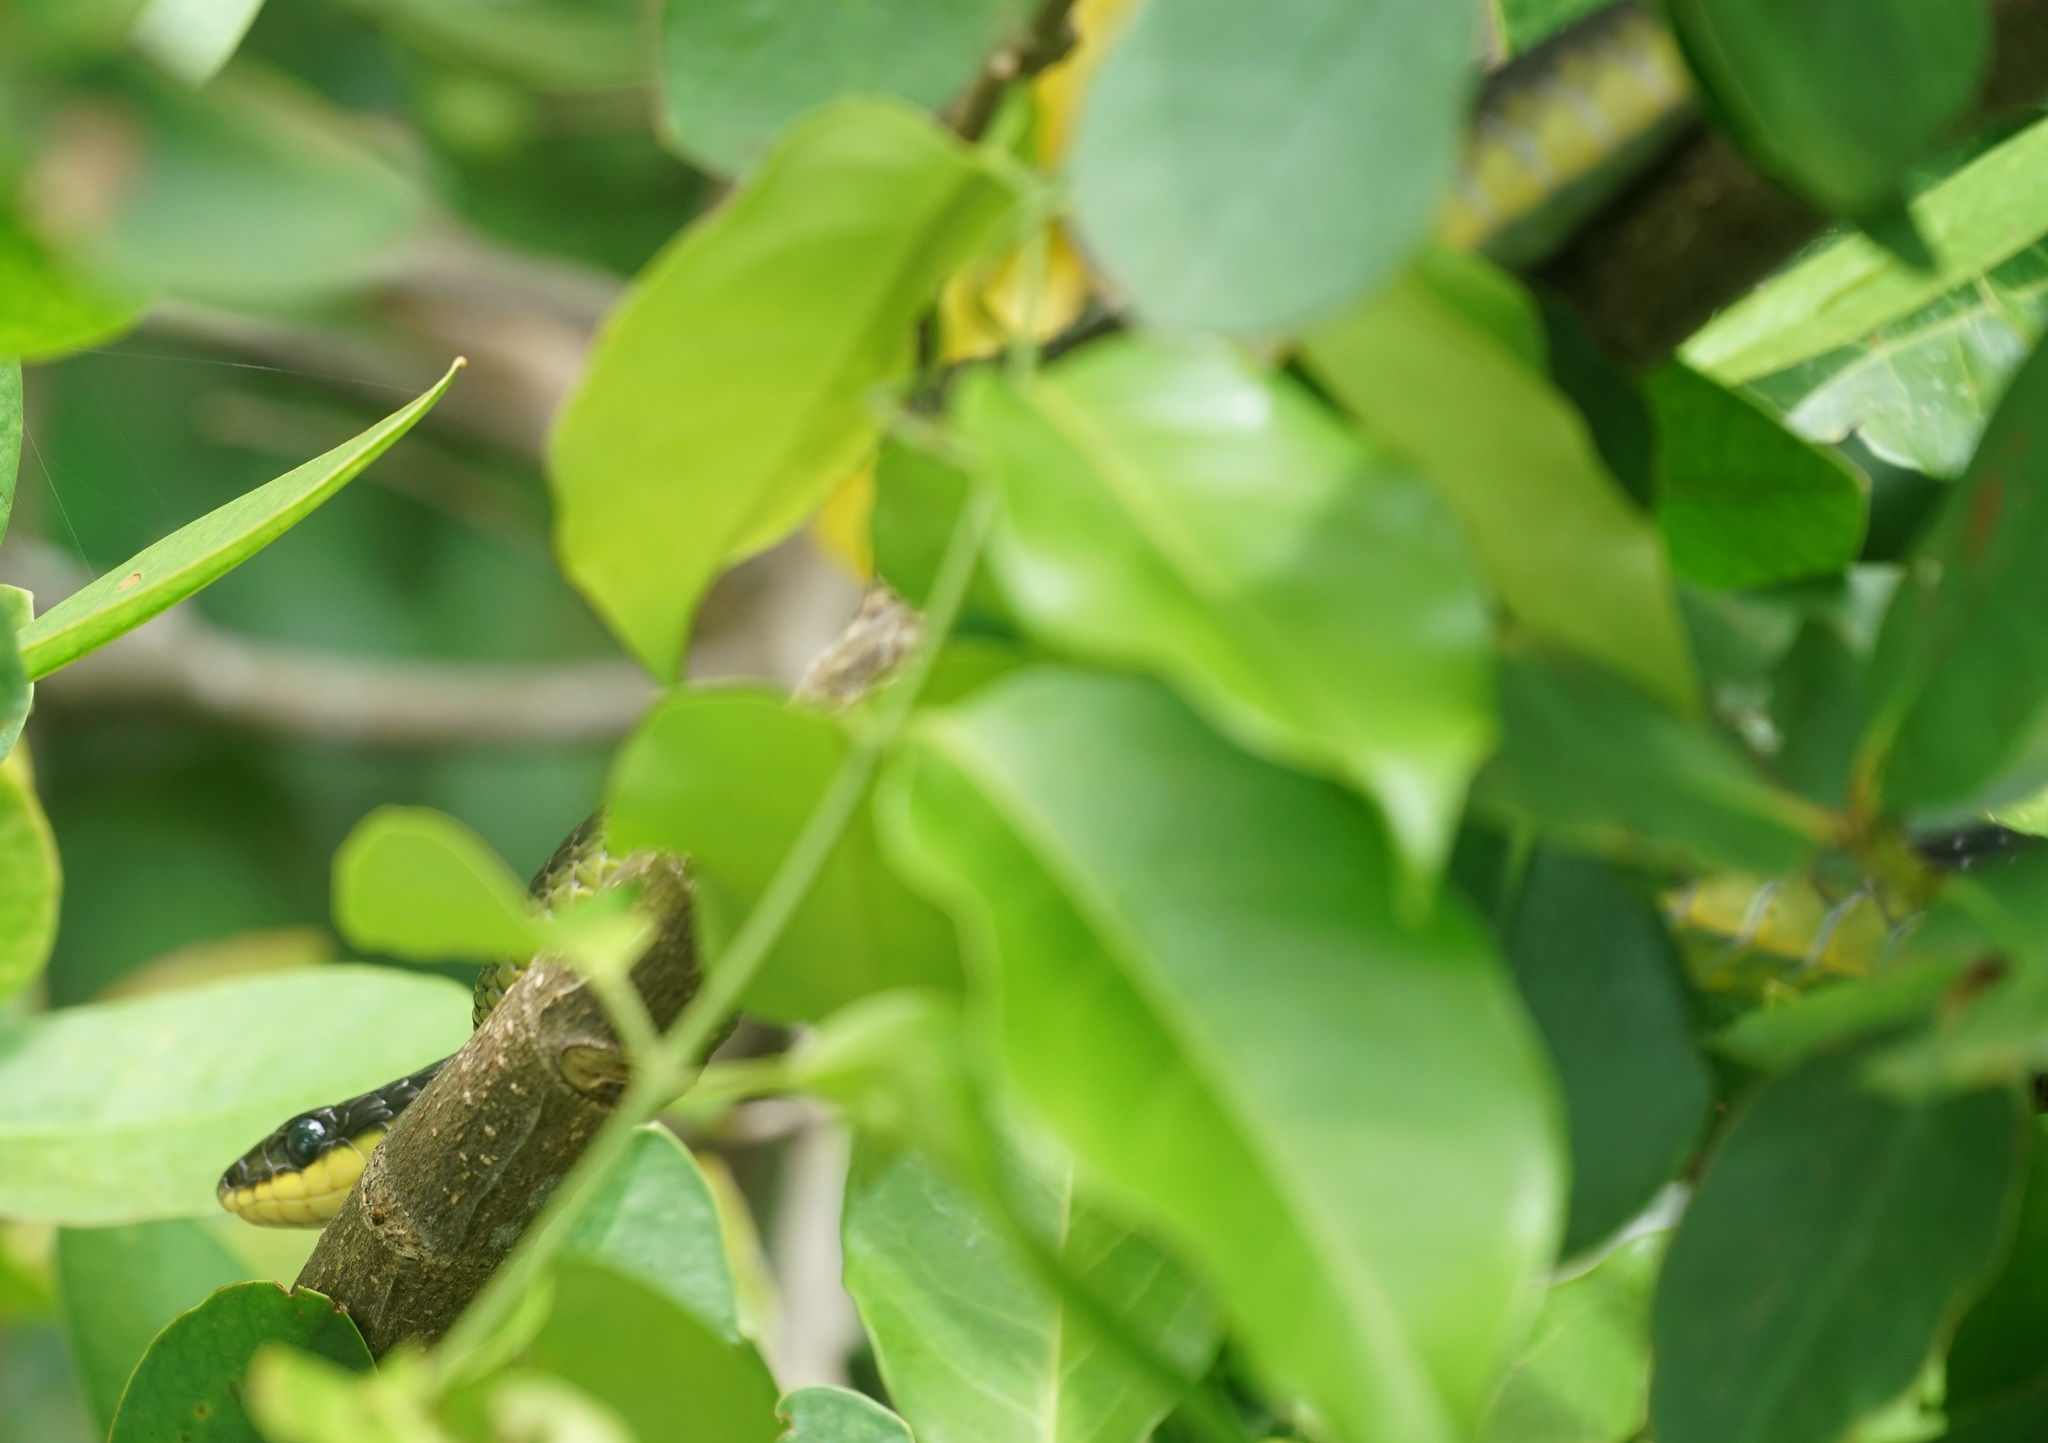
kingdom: Animalia
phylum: Chordata
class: Squamata
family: Colubridae
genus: Dendrelaphis
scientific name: Dendrelaphis punctulatus
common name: Common tree snake
